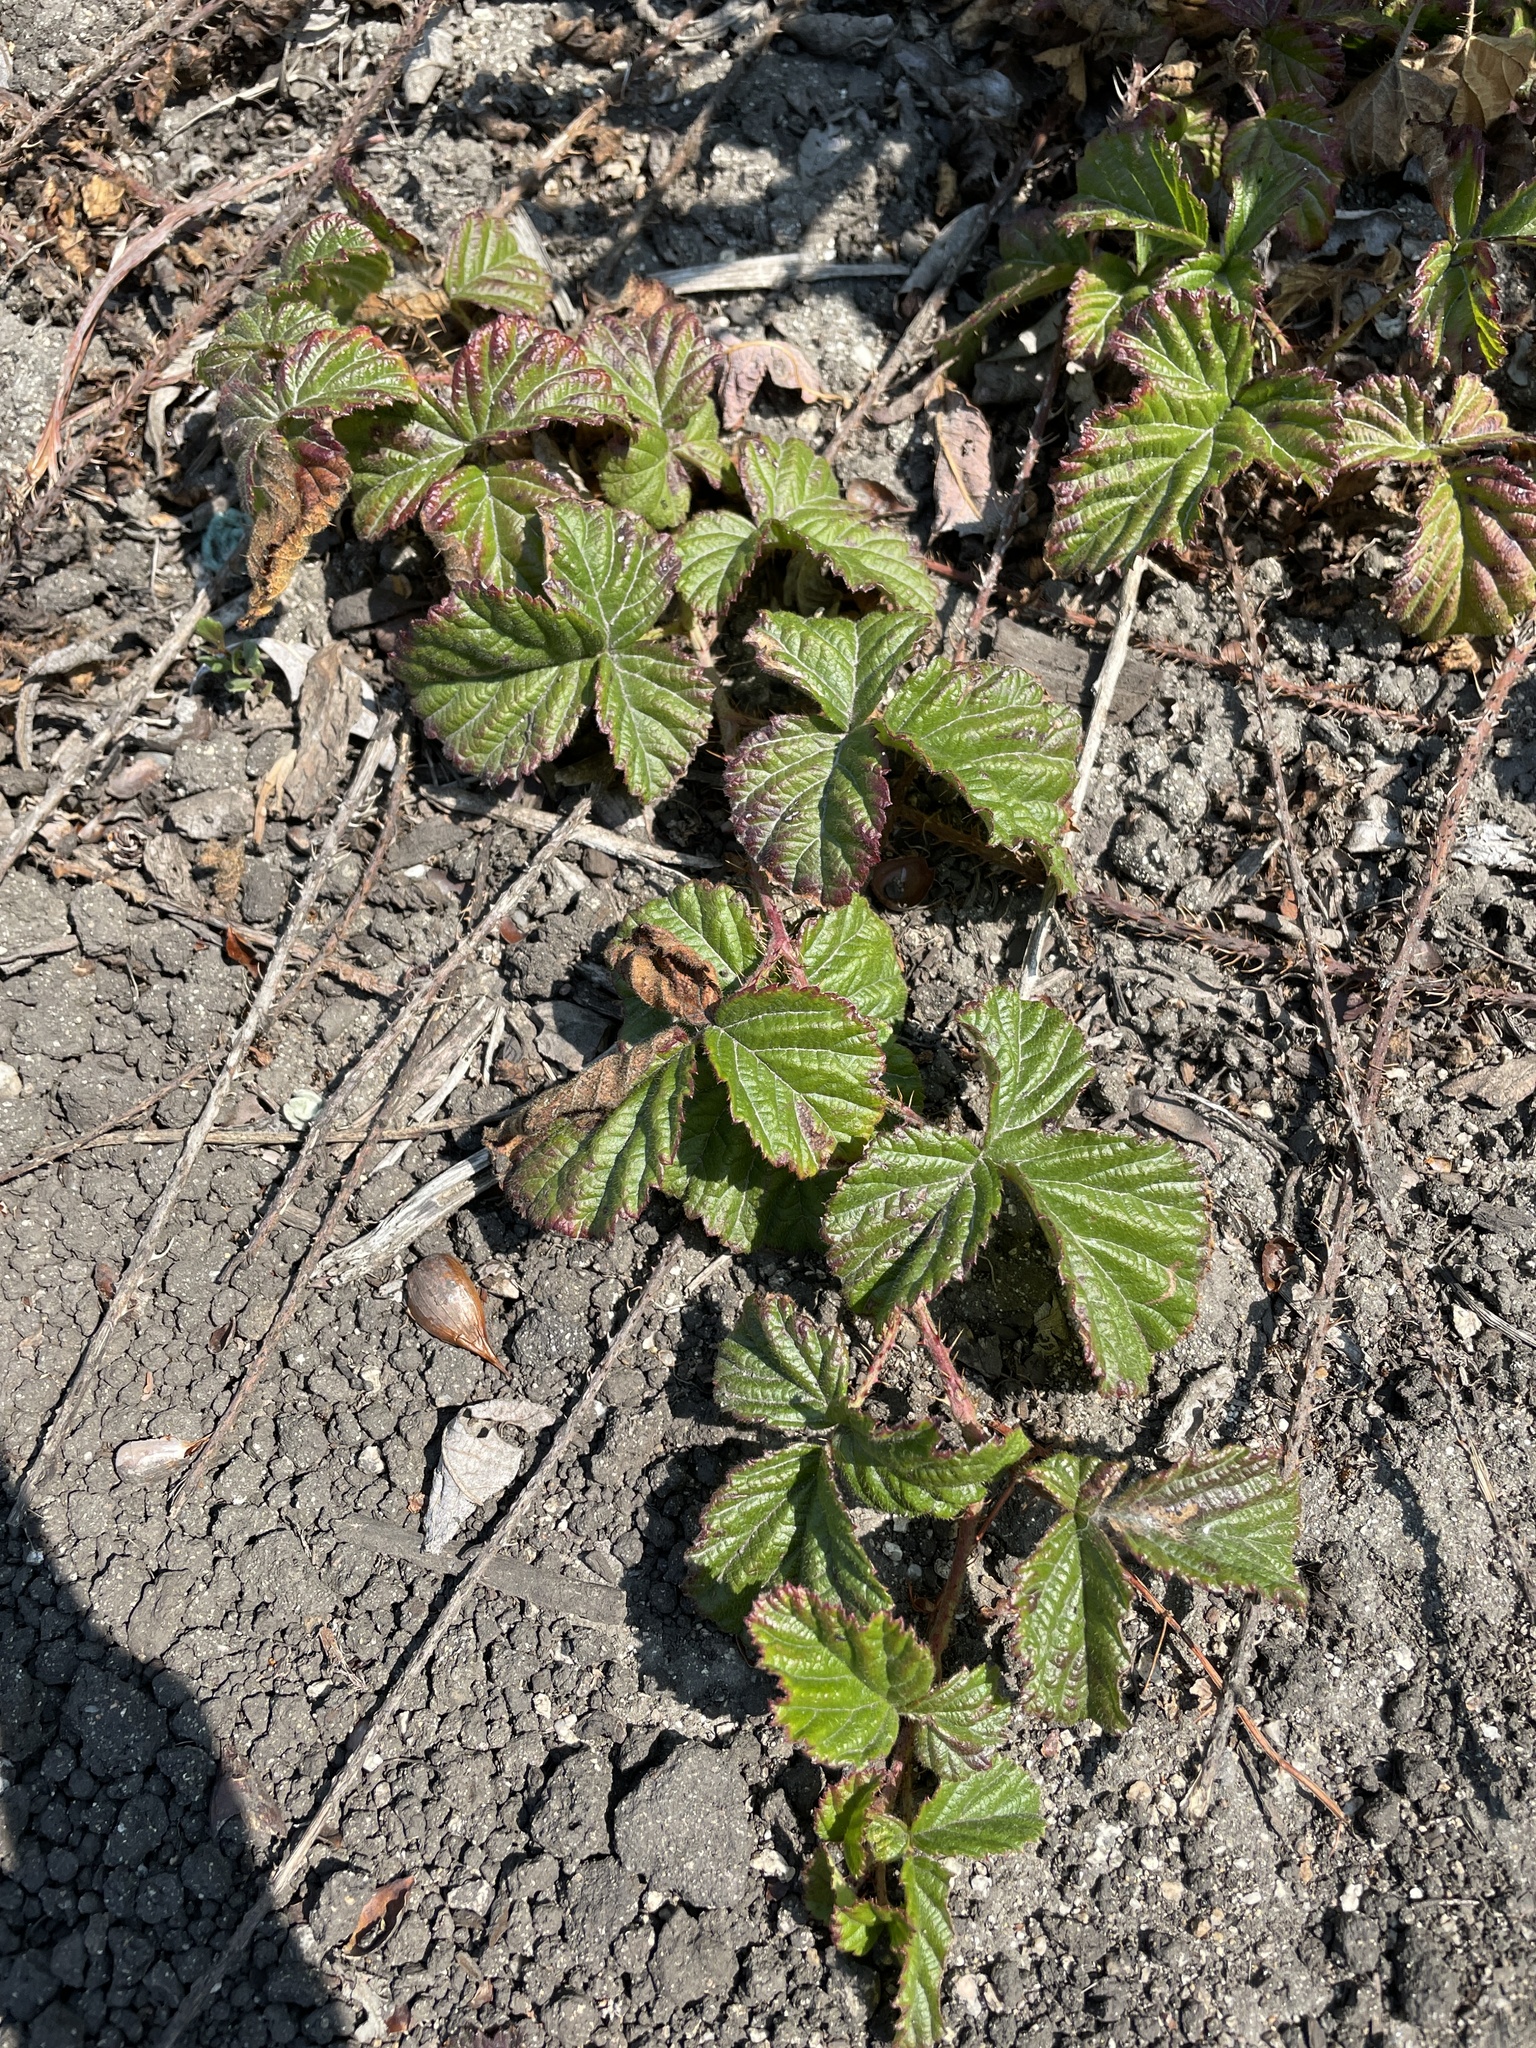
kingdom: Plantae
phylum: Tracheophyta
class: Magnoliopsida
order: Rosales
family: Rosaceae
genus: Rubus
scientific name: Rubus ursinus
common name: Pacific blackberry
